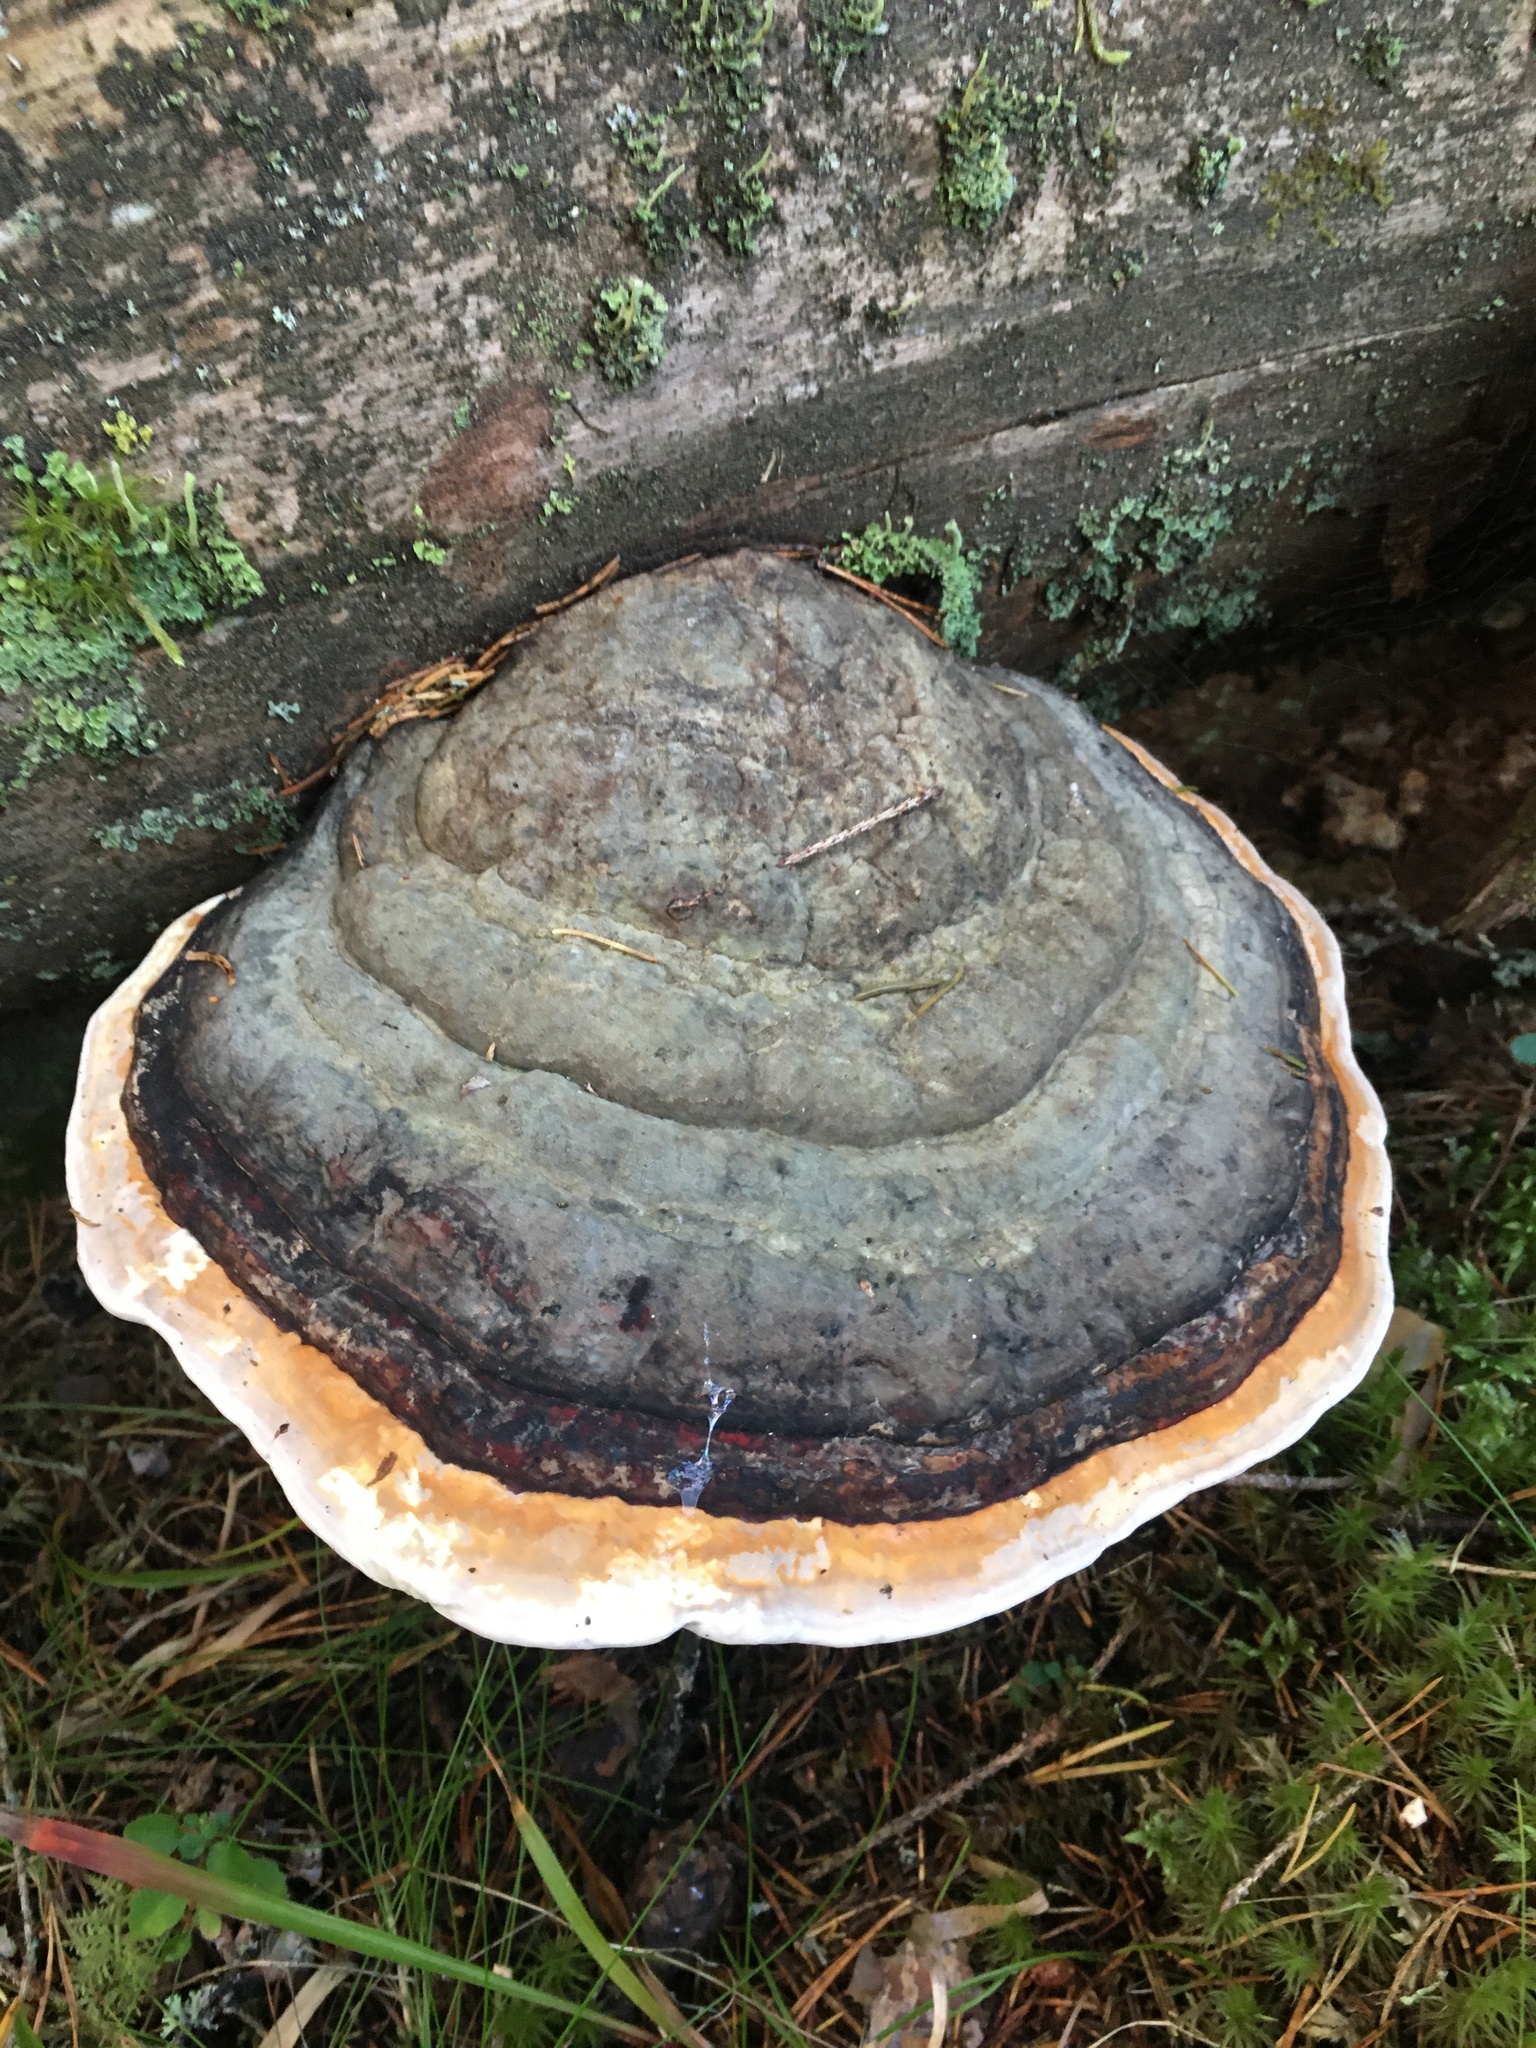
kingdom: Fungi
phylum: Basidiomycota
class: Agaricomycetes
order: Polyporales
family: Fomitopsidaceae
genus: Fomitopsis
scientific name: Fomitopsis pinicola
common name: Red-belted bracket
